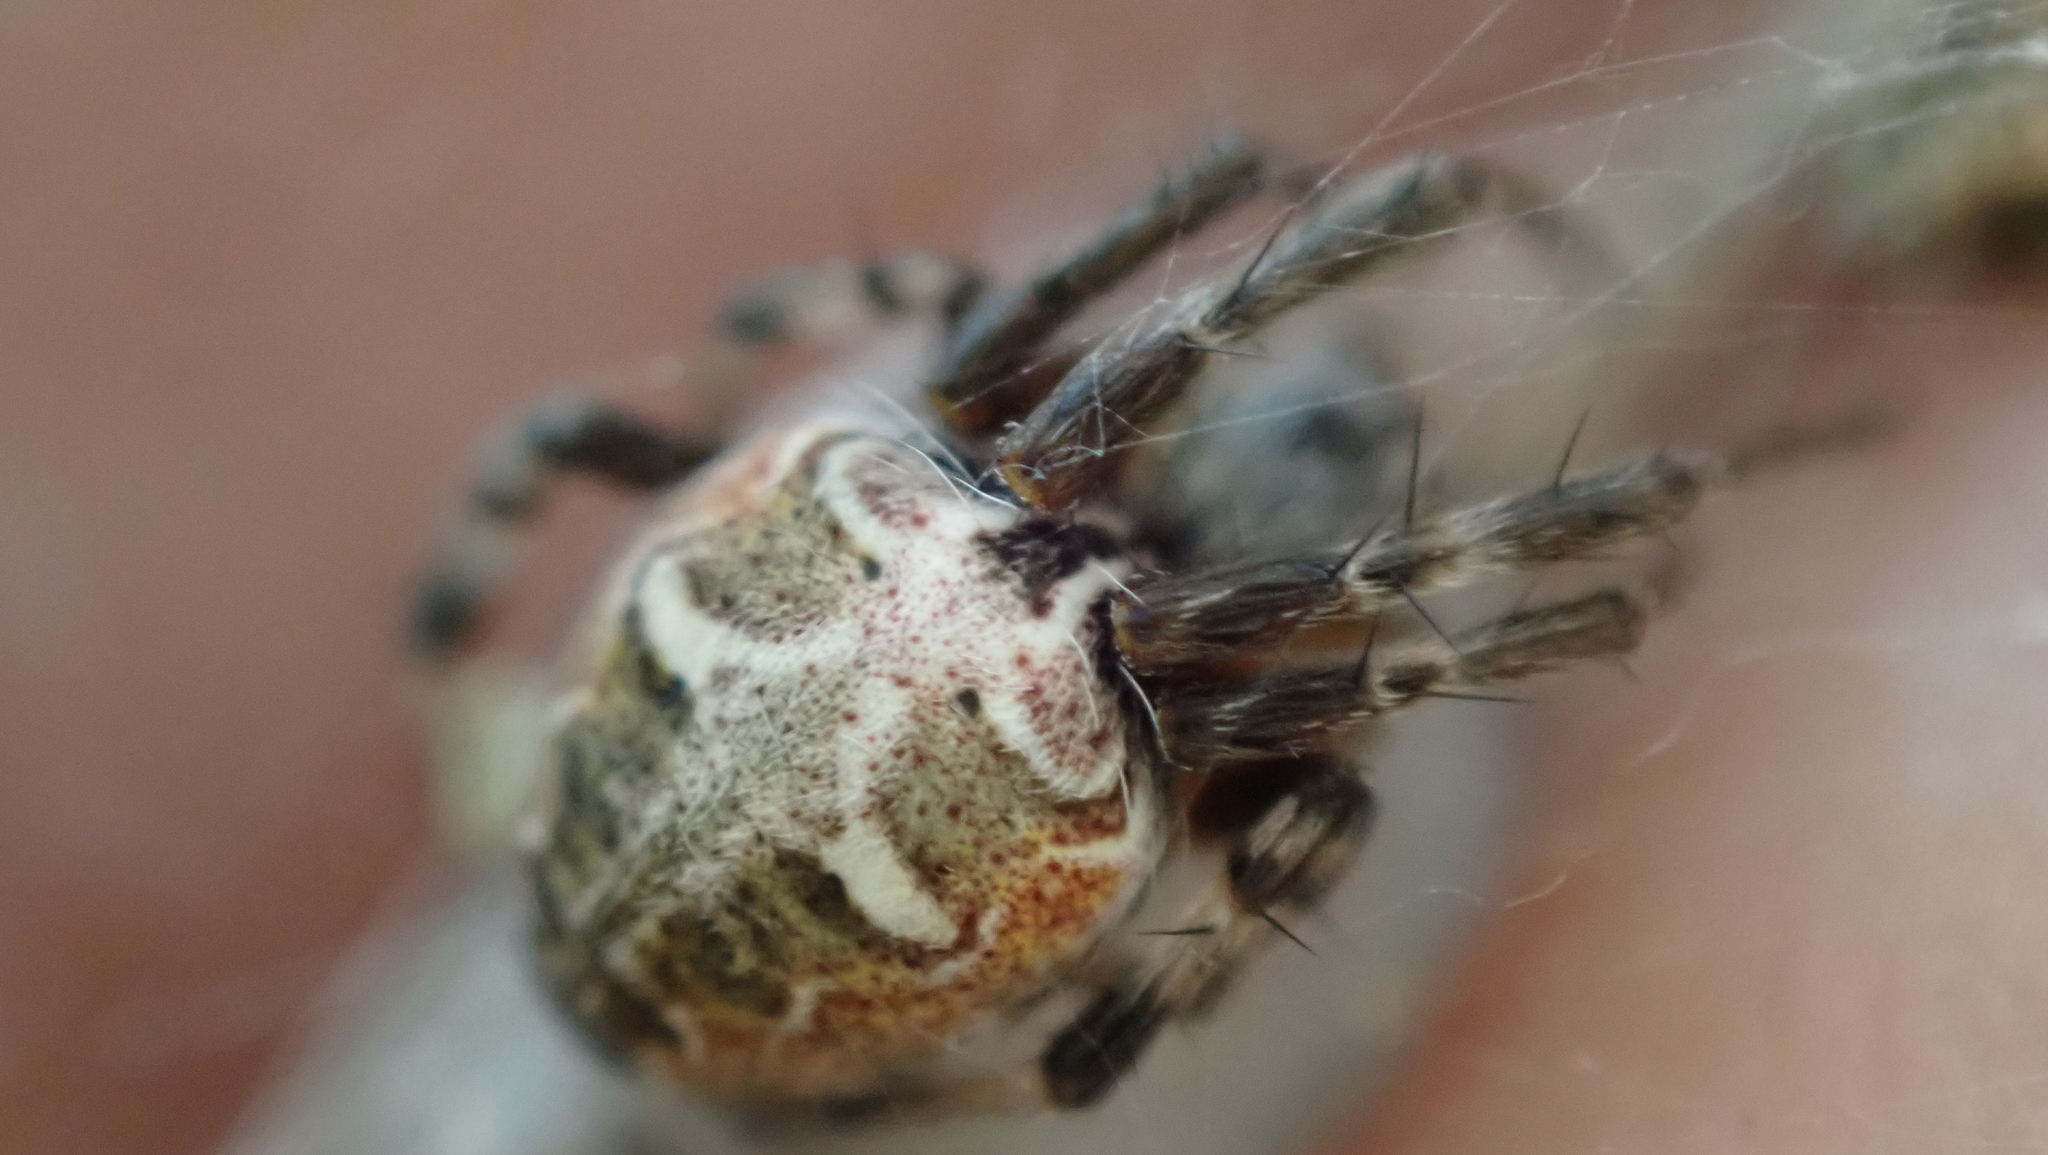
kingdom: Animalia
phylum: Arthropoda
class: Arachnida
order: Araneae
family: Araneidae
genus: Metepeira
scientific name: Metepeira labyrinthea
